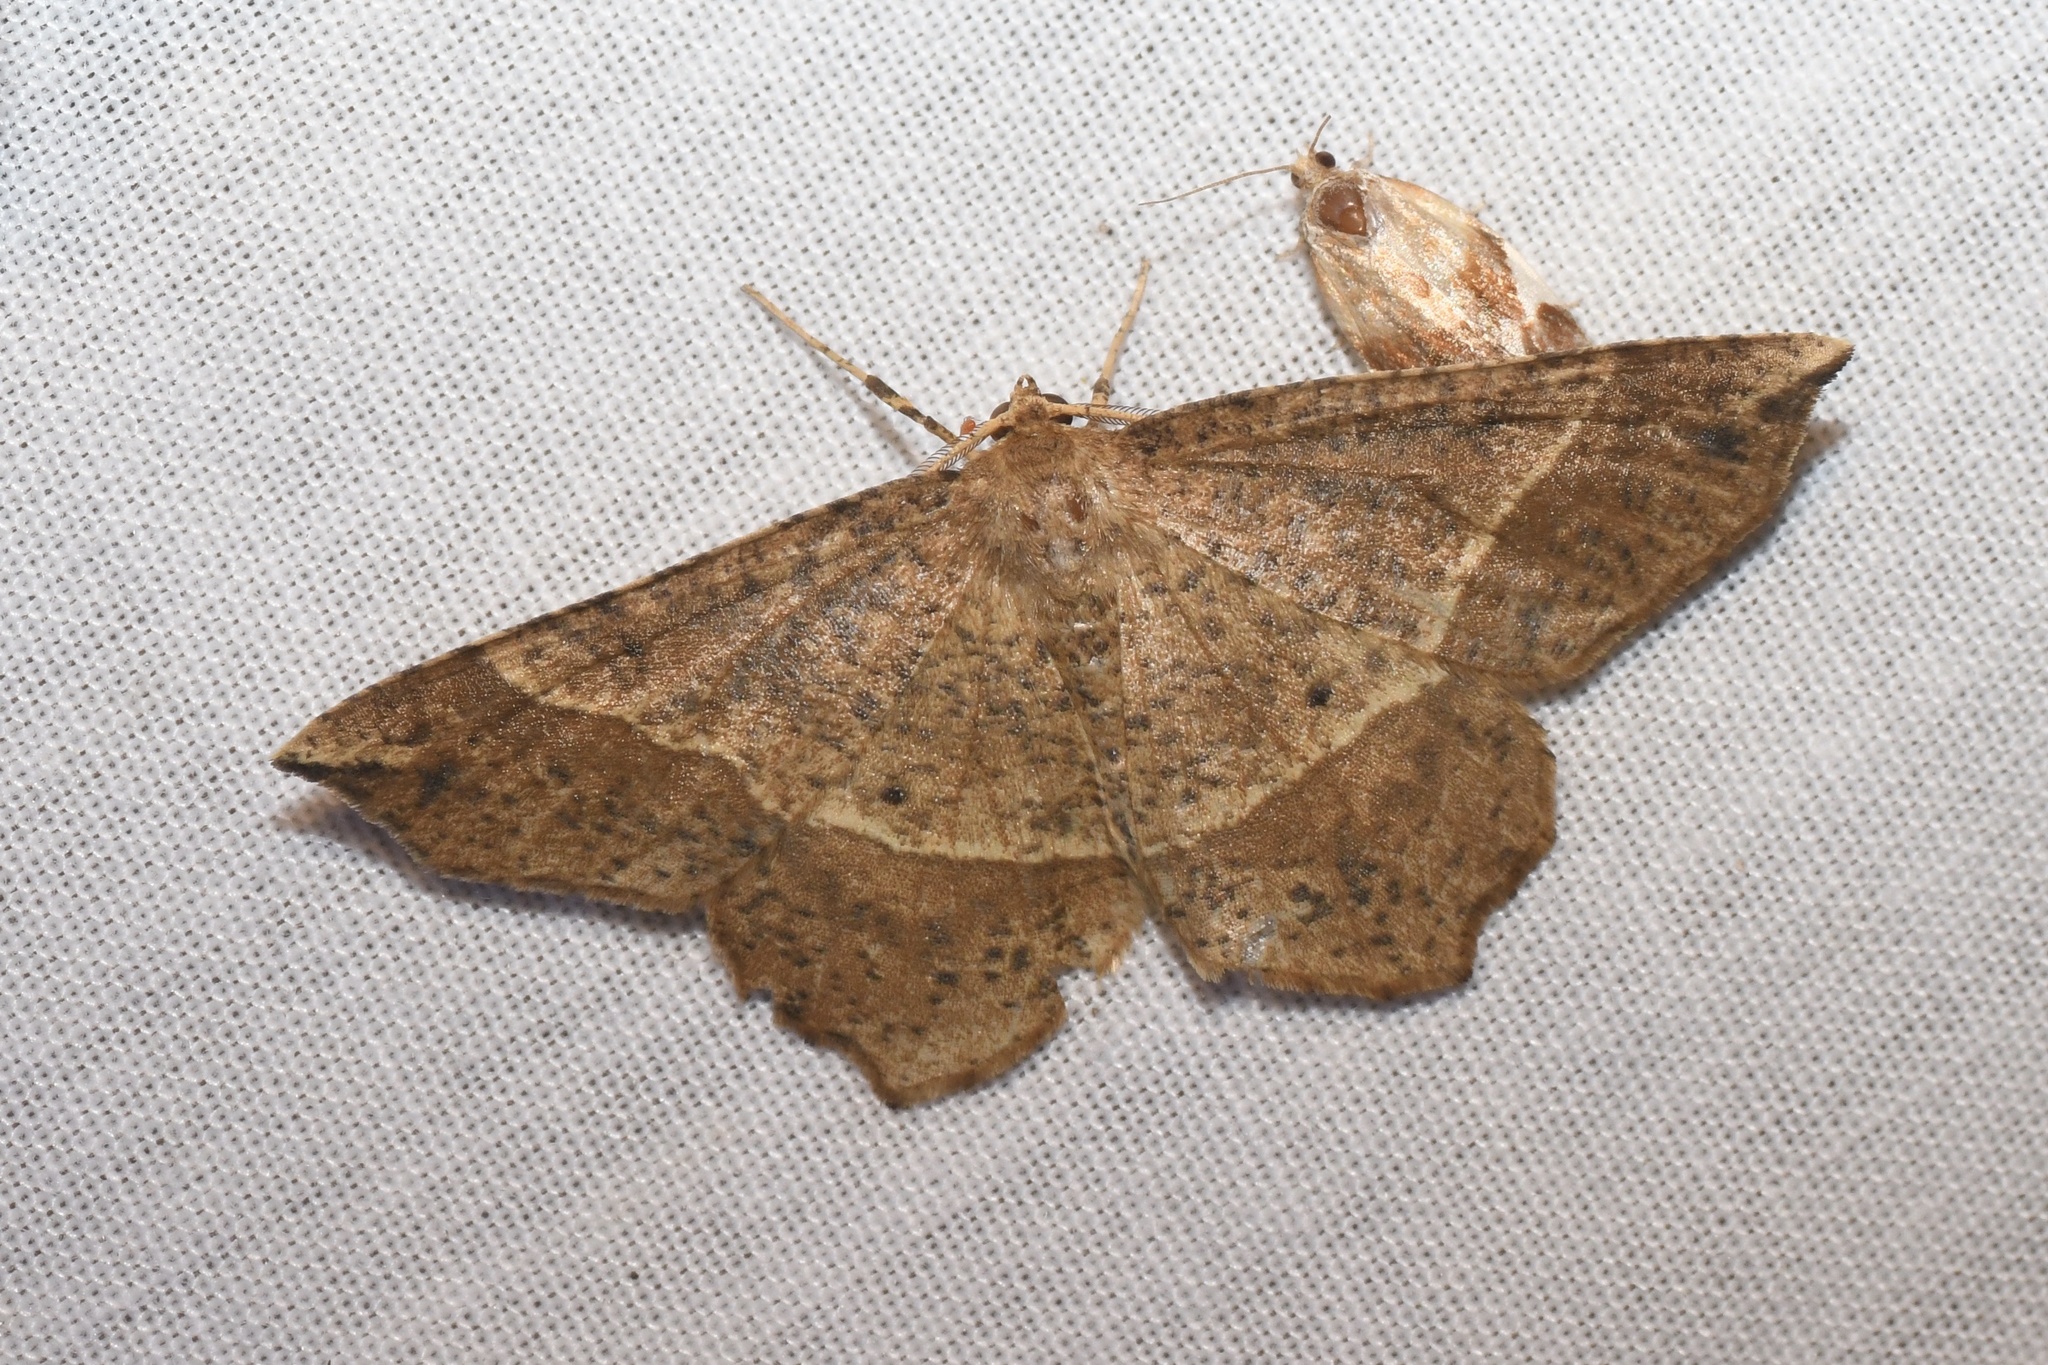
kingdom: Animalia
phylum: Arthropoda
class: Insecta
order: Lepidoptera
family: Geometridae
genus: Euchlaena
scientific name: Euchlaena tigrinaria
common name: Mottled euchlaena moth
